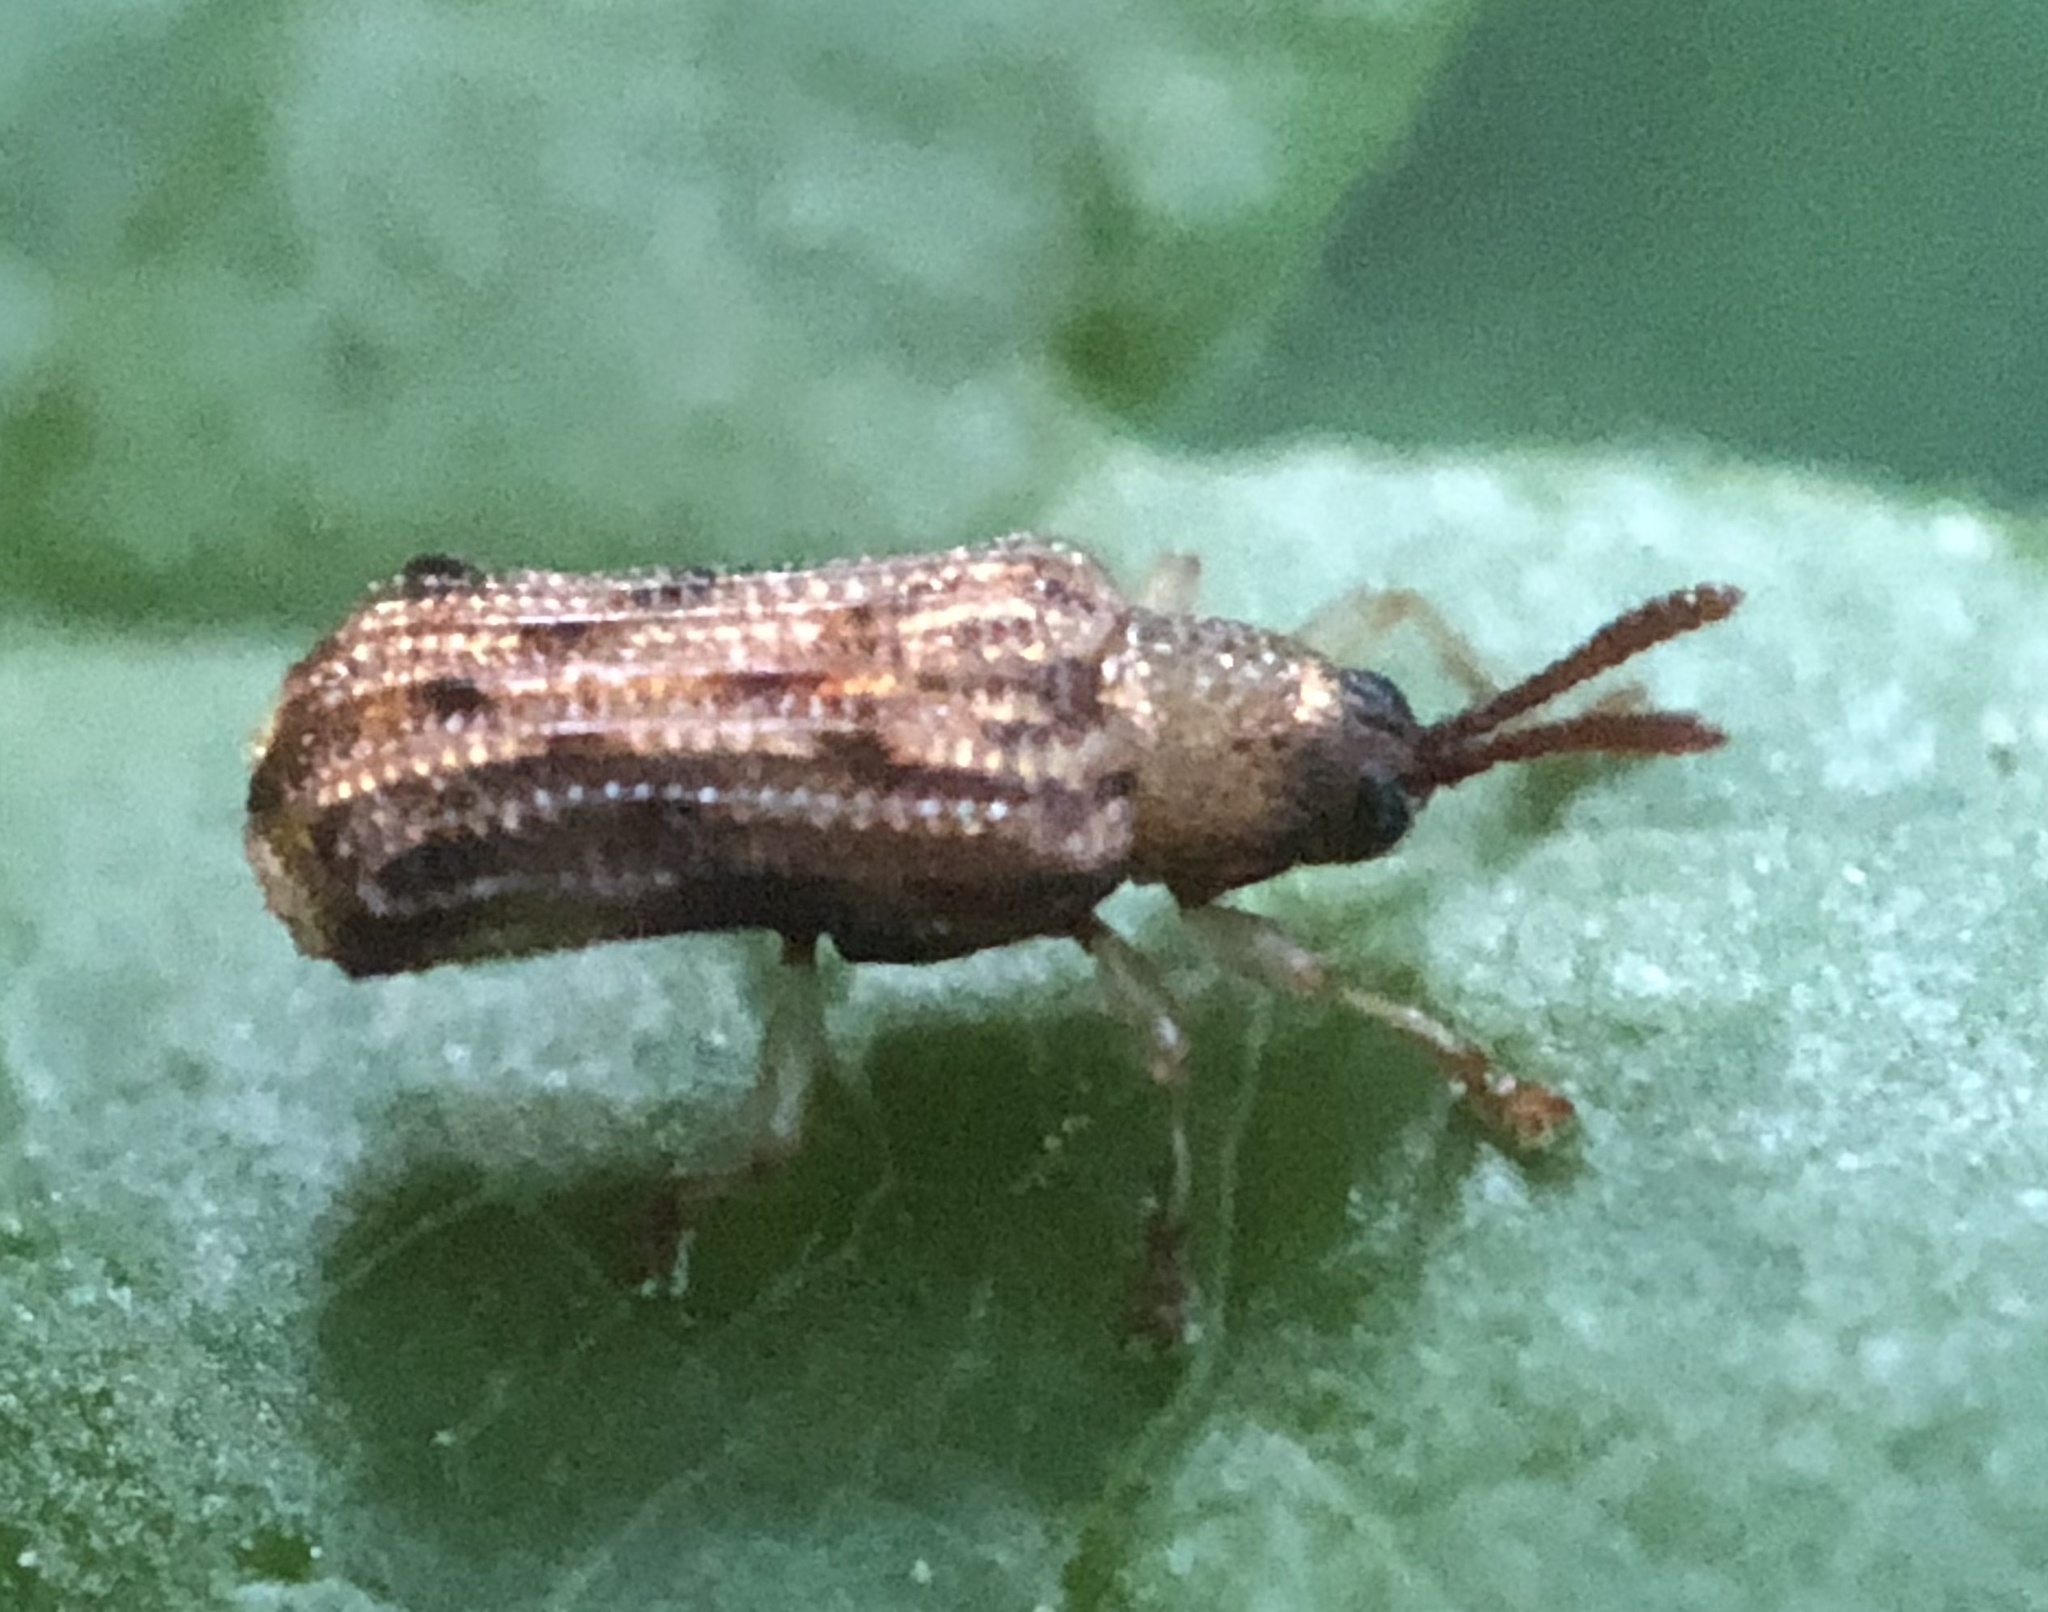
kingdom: Animalia
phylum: Arthropoda
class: Insecta
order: Coleoptera
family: Chrysomelidae
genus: Sumitrosis
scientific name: Sumitrosis rosea
